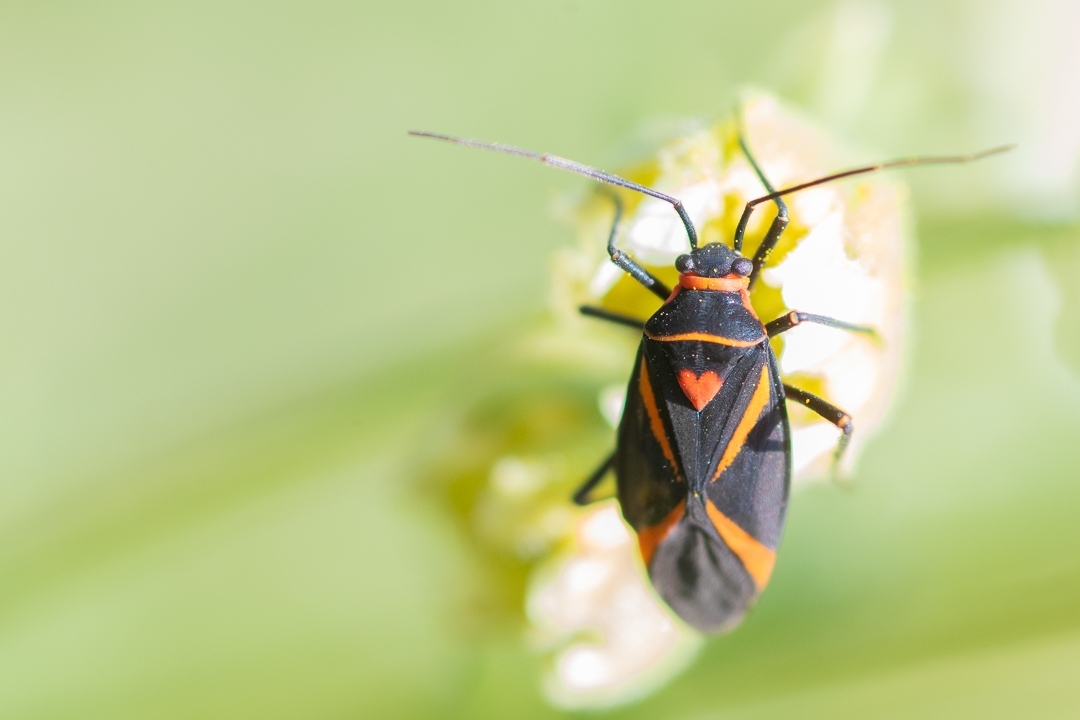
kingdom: Animalia
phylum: Arthropoda
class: Insecta
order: Hemiptera
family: Miridae
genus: Eurylomata
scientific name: Eurylomata picturata
